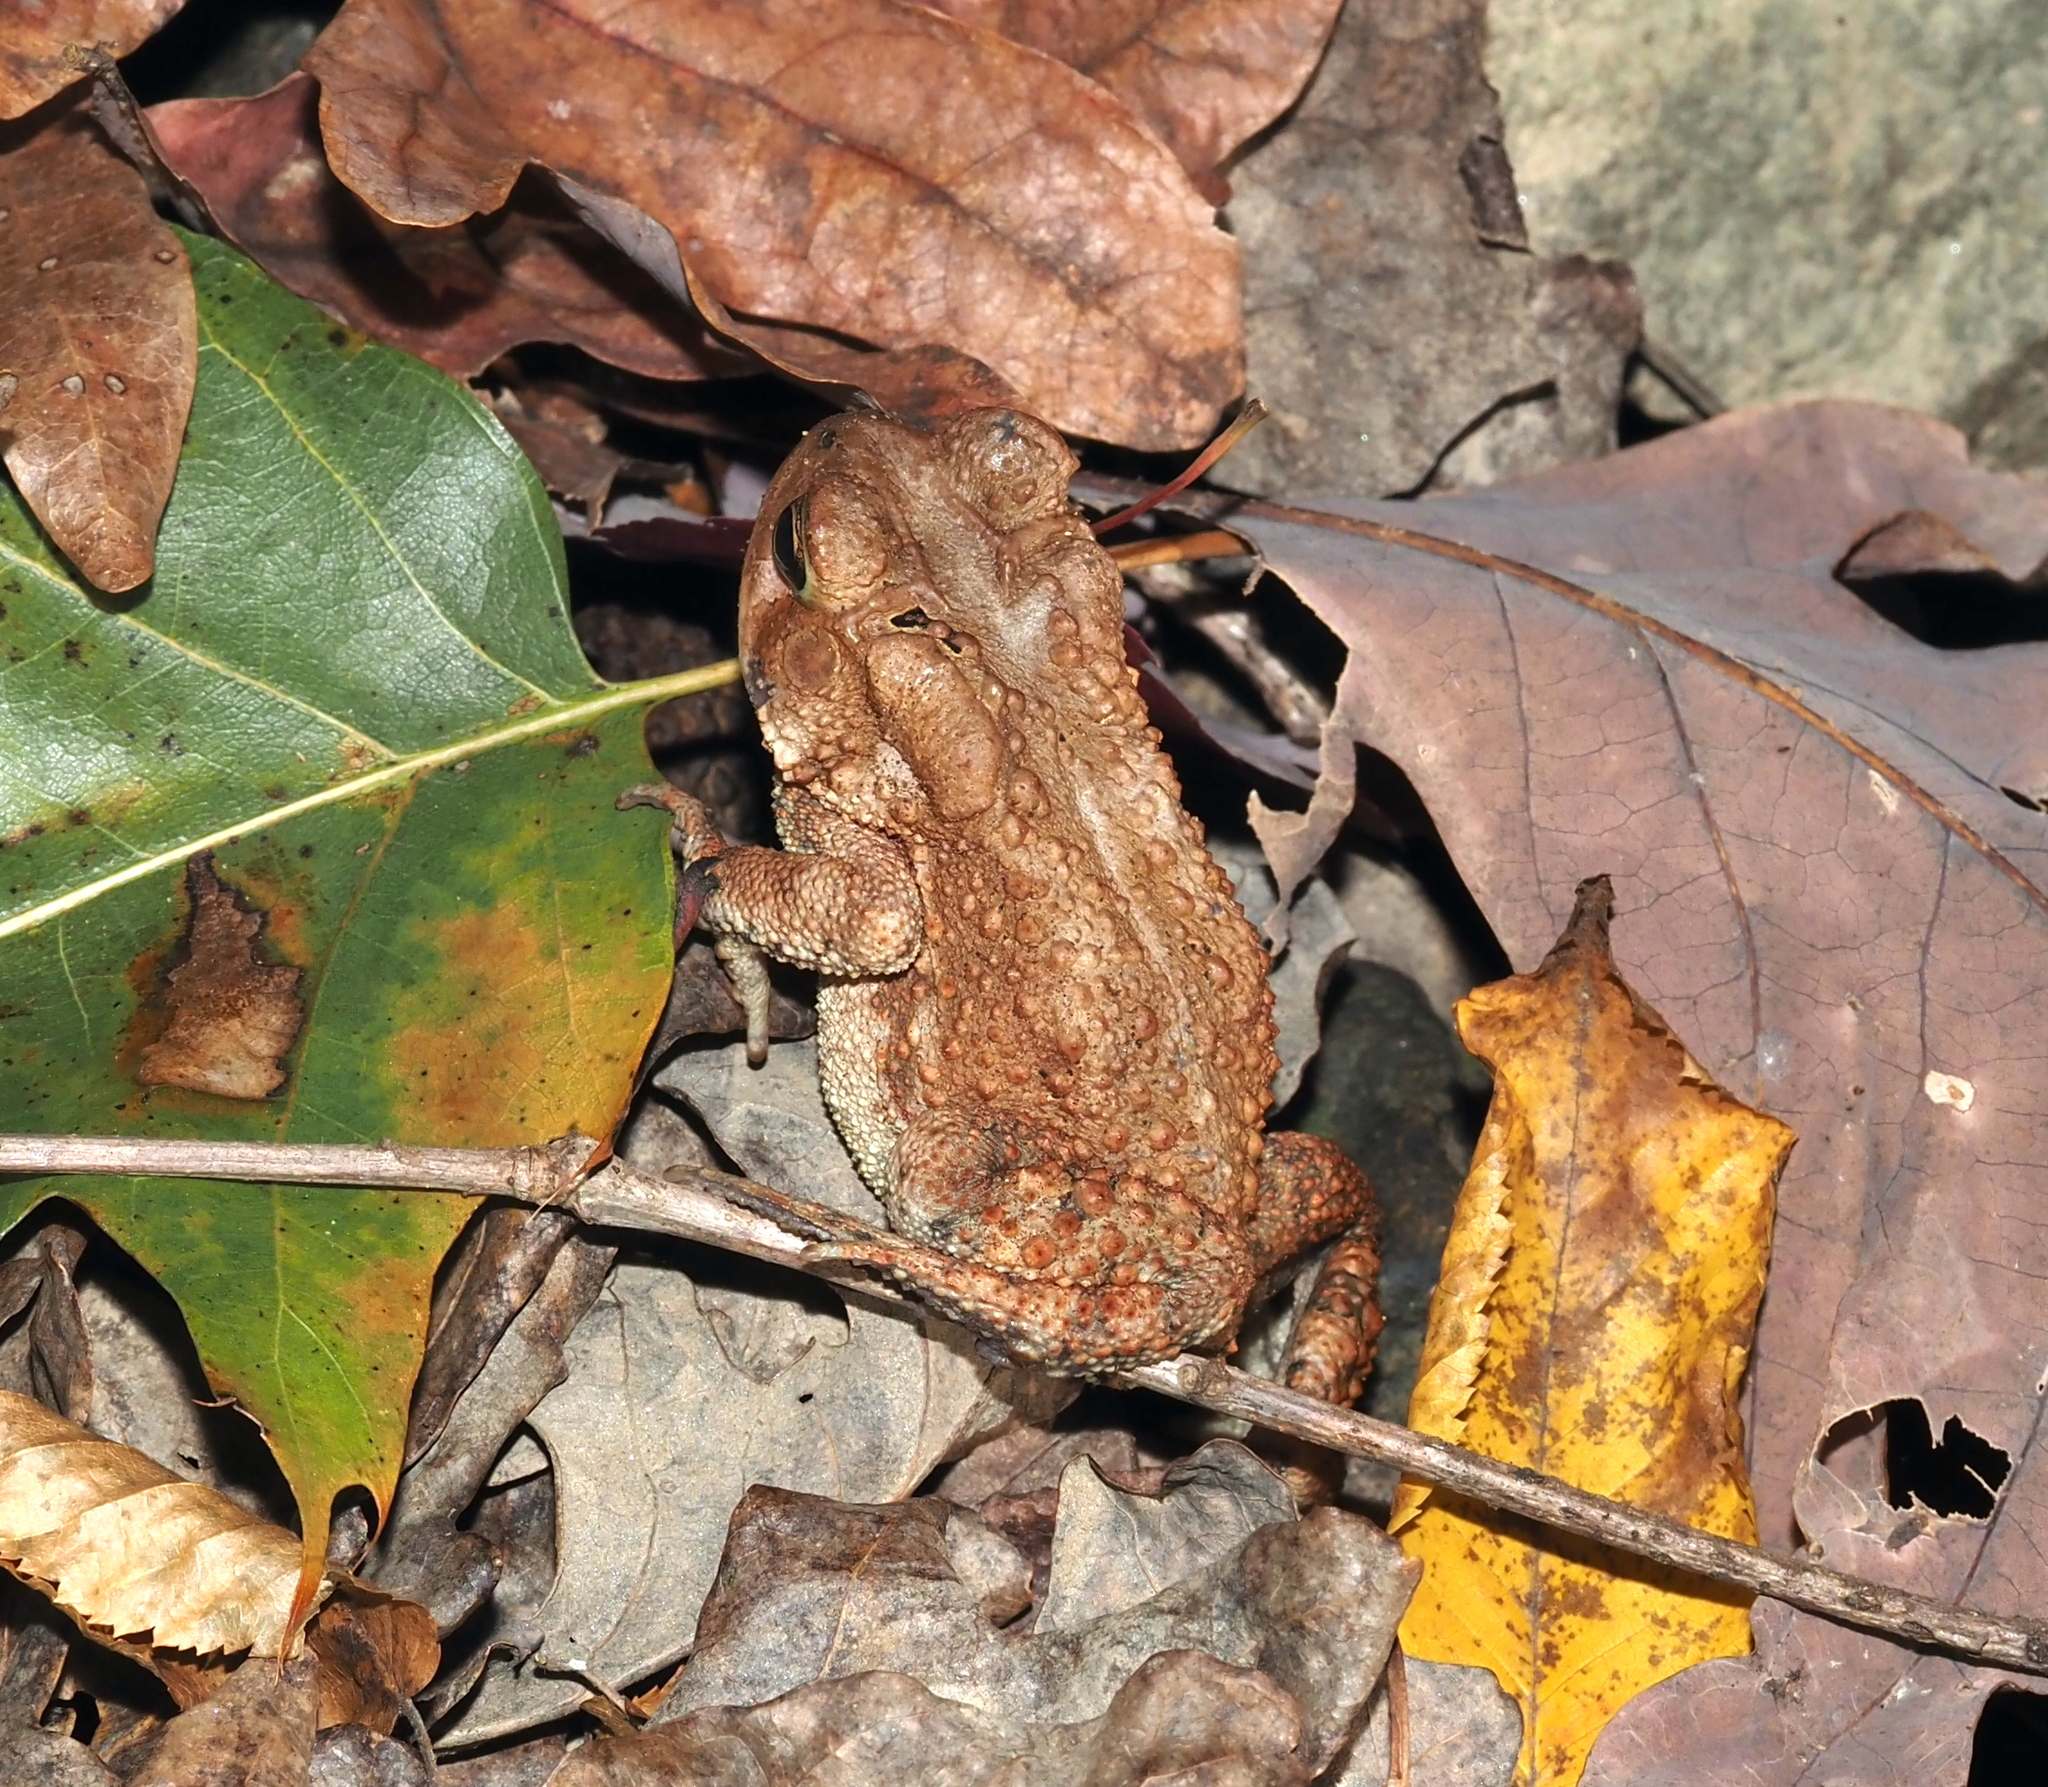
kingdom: Animalia
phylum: Chordata
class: Amphibia
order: Anura
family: Bufonidae
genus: Anaxyrus
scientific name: Anaxyrus americanus
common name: American toad
